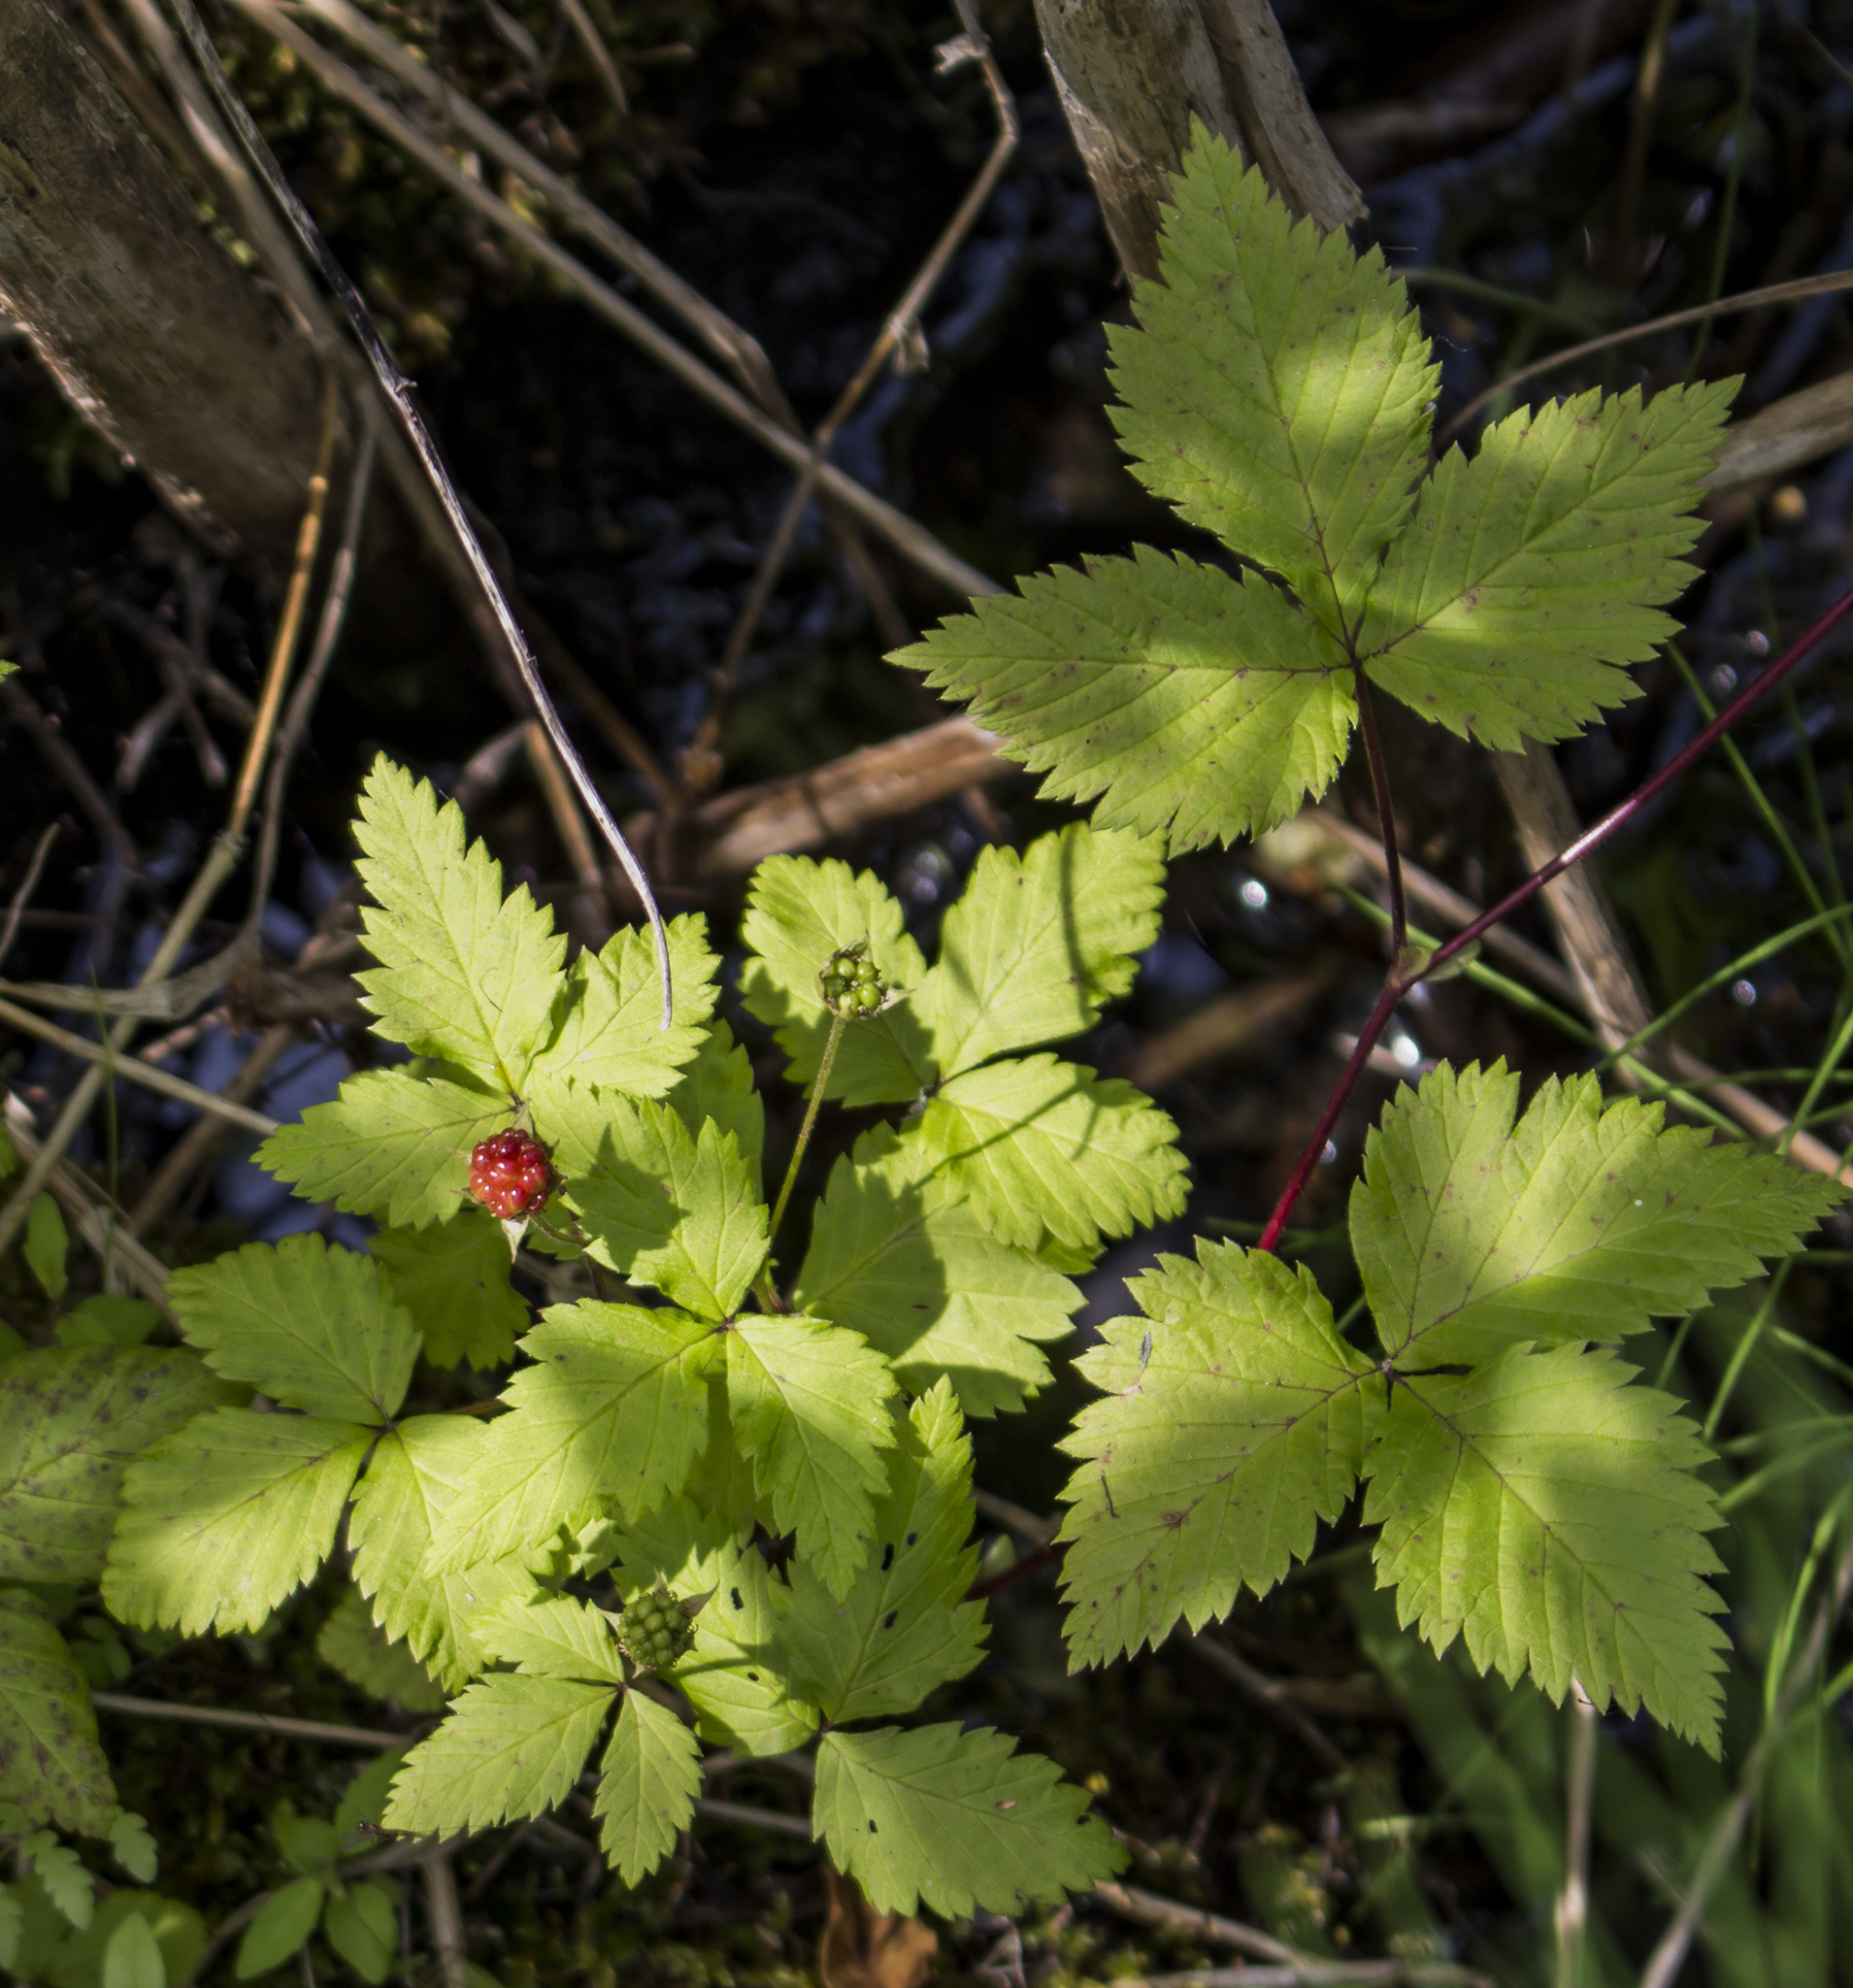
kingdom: Plantae
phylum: Tracheophyta
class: Magnoliopsida
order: Rosales
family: Rosaceae
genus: Rubus
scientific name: Rubus pubescens
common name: Dwarf raspberry
